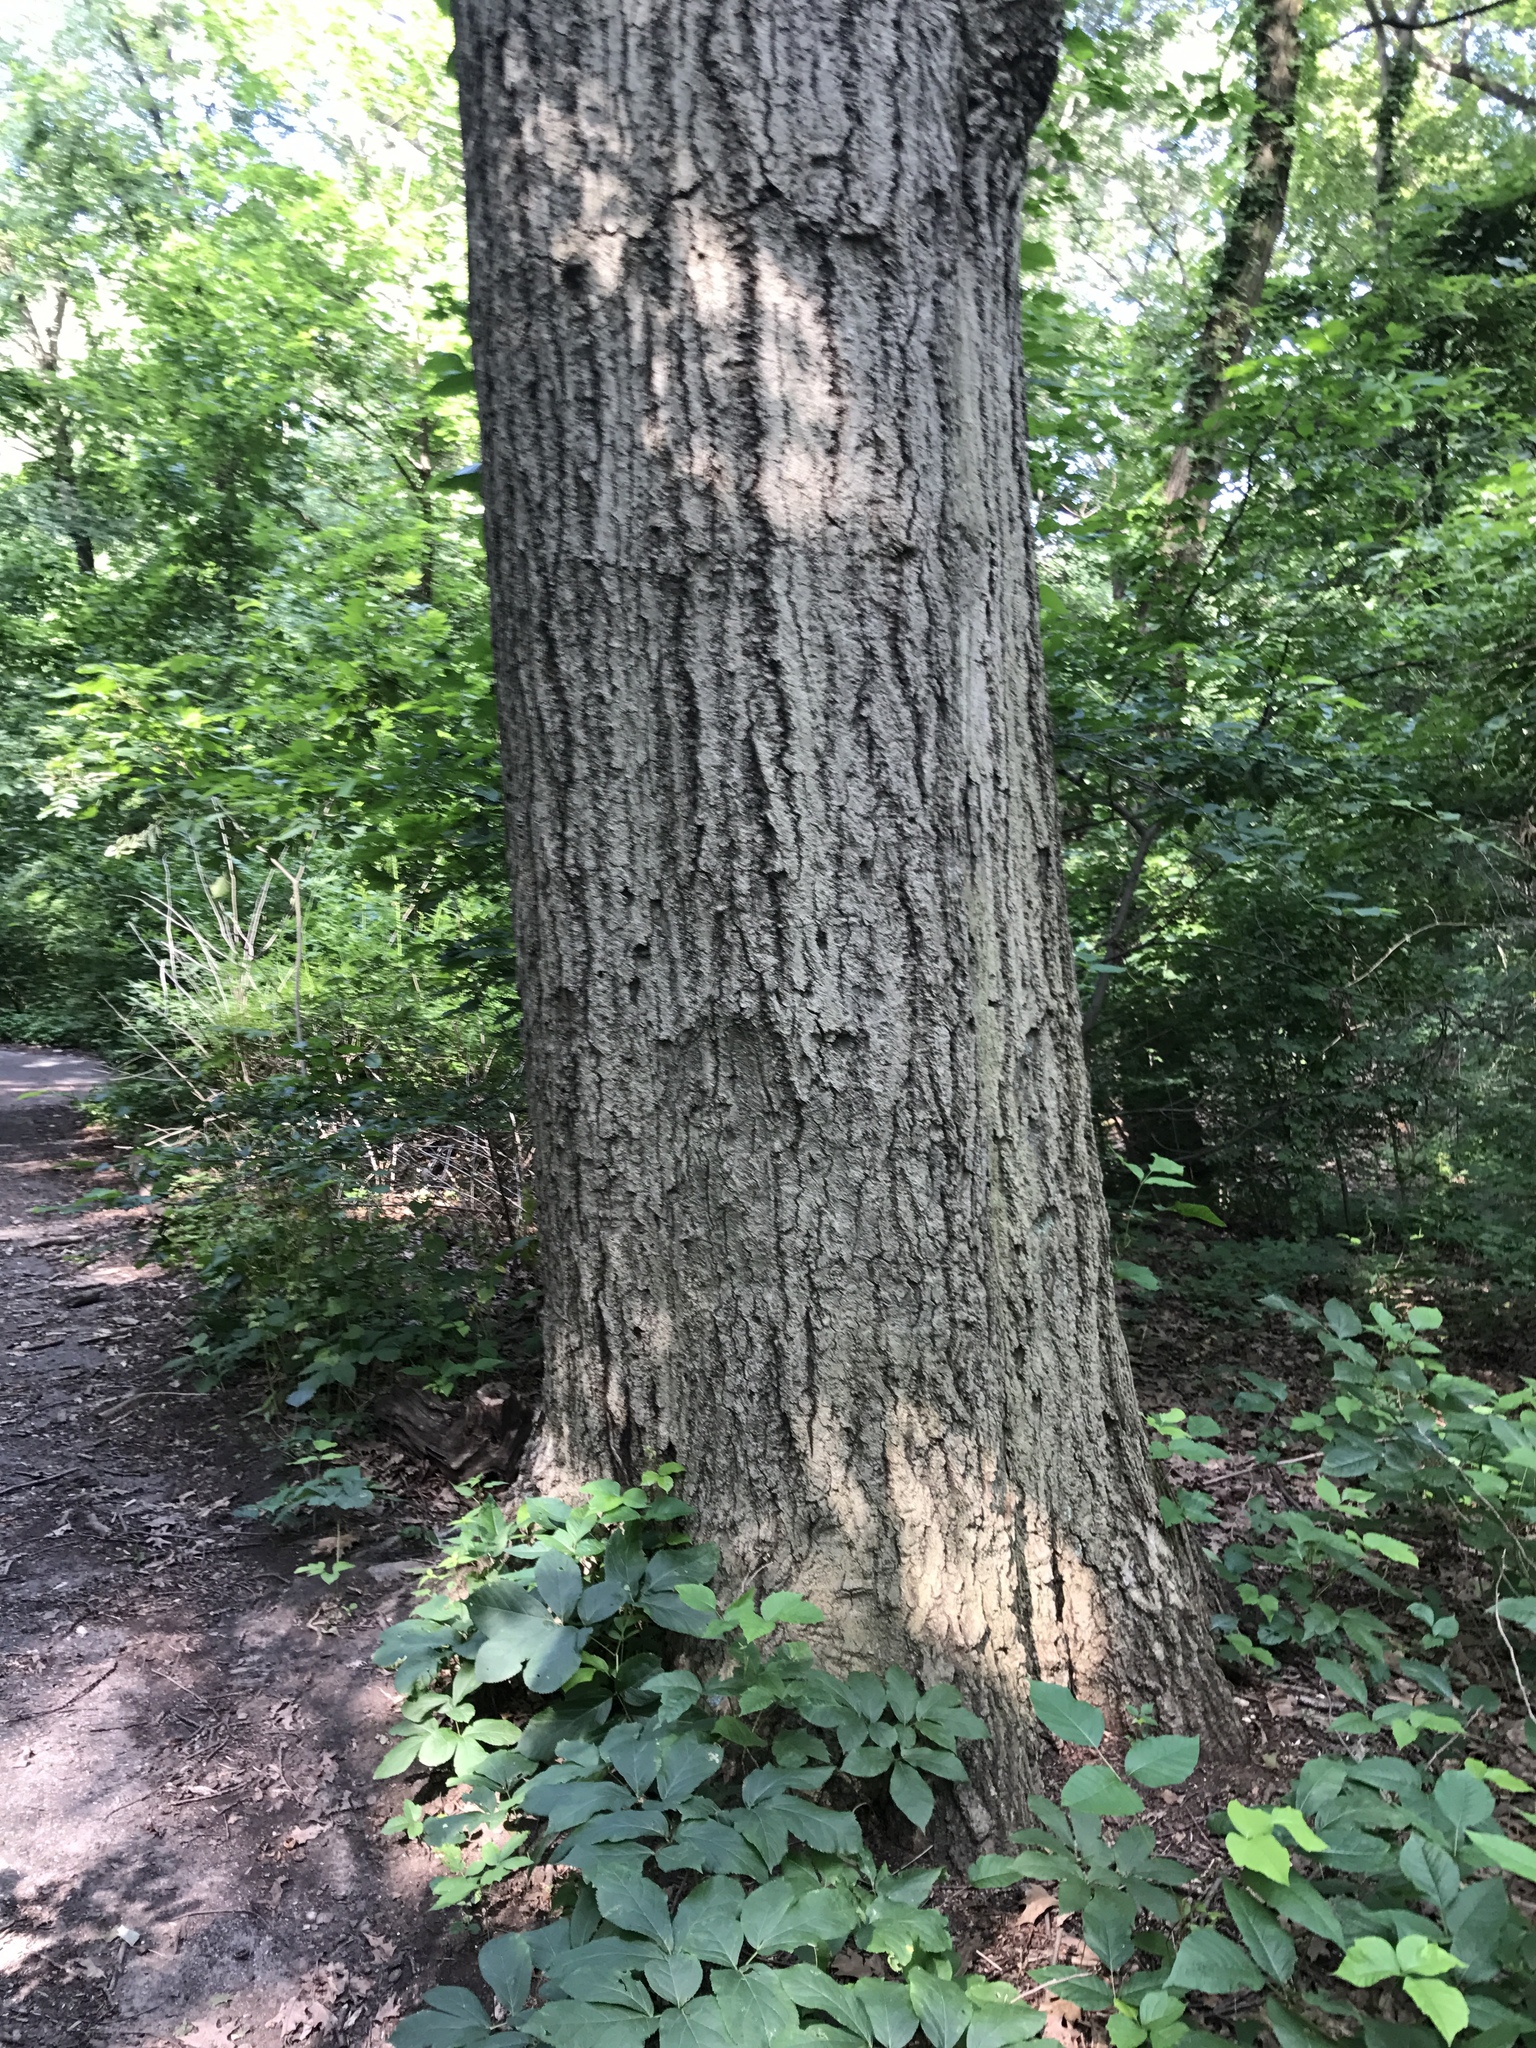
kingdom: Plantae
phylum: Tracheophyta
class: Magnoliopsida
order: Fagales
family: Fagaceae
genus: Quercus
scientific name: Quercus rubra
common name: Red oak
